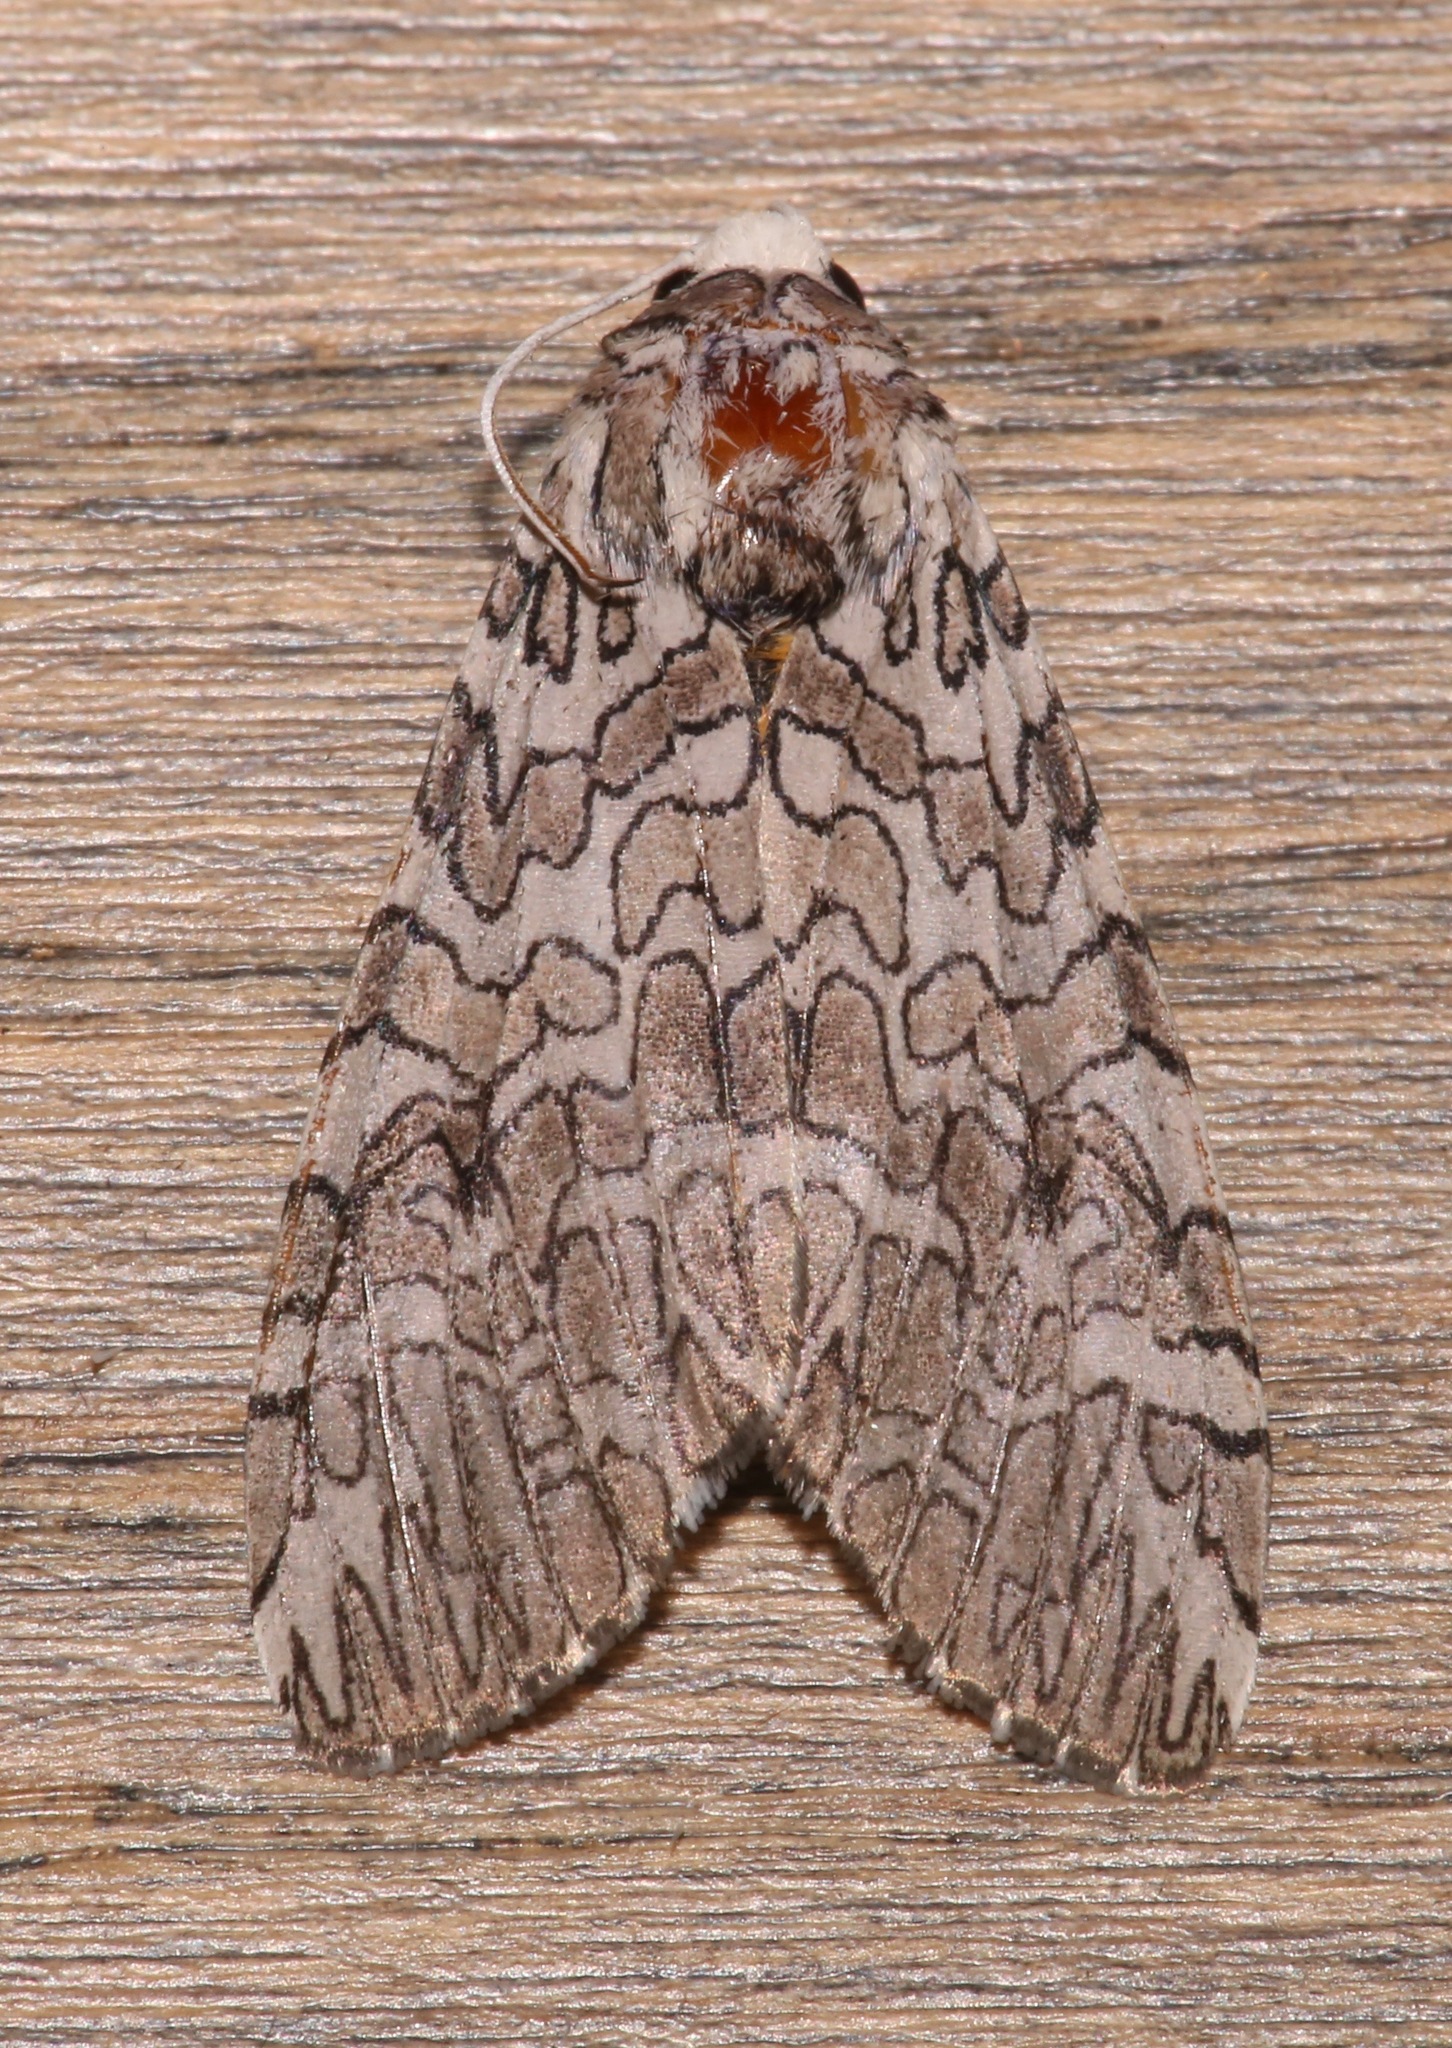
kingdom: Animalia
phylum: Arthropoda
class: Insecta
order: Lepidoptera
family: Erebidae
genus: Hypercompe
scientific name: Hypercompe suffusa
